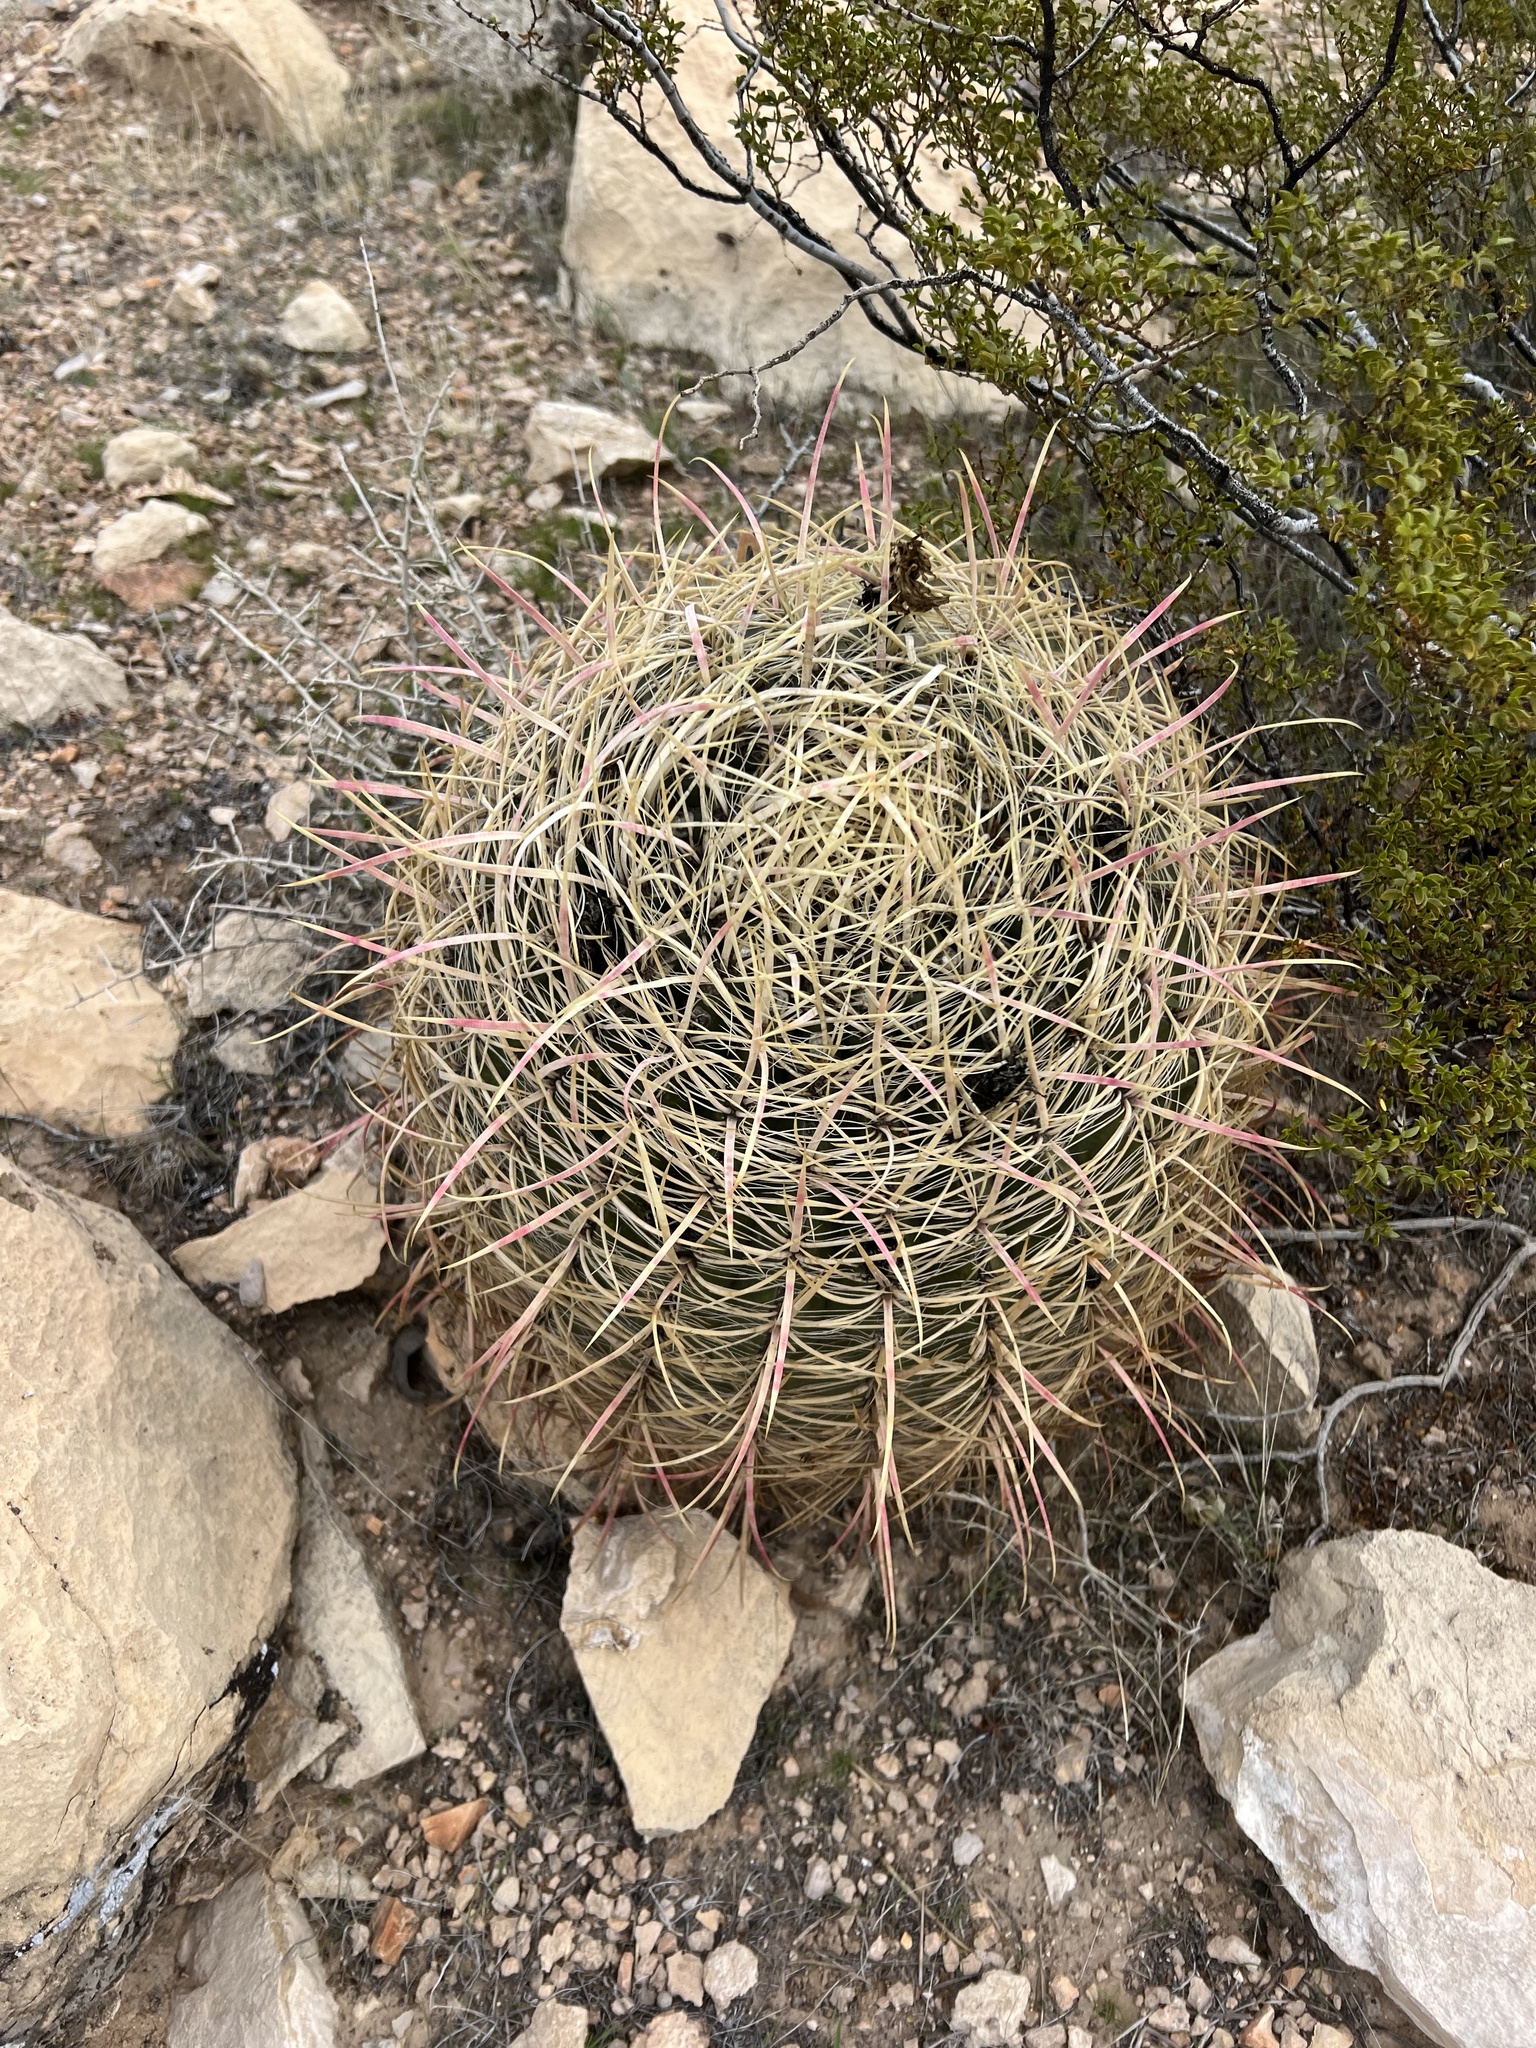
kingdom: Plantae
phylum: Tracheophyta
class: Magnoliopsida
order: Caryophyllales
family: Cactaceae
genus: Ferocactus
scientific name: Ferocactus cylindraceus
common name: California barrel cactus
